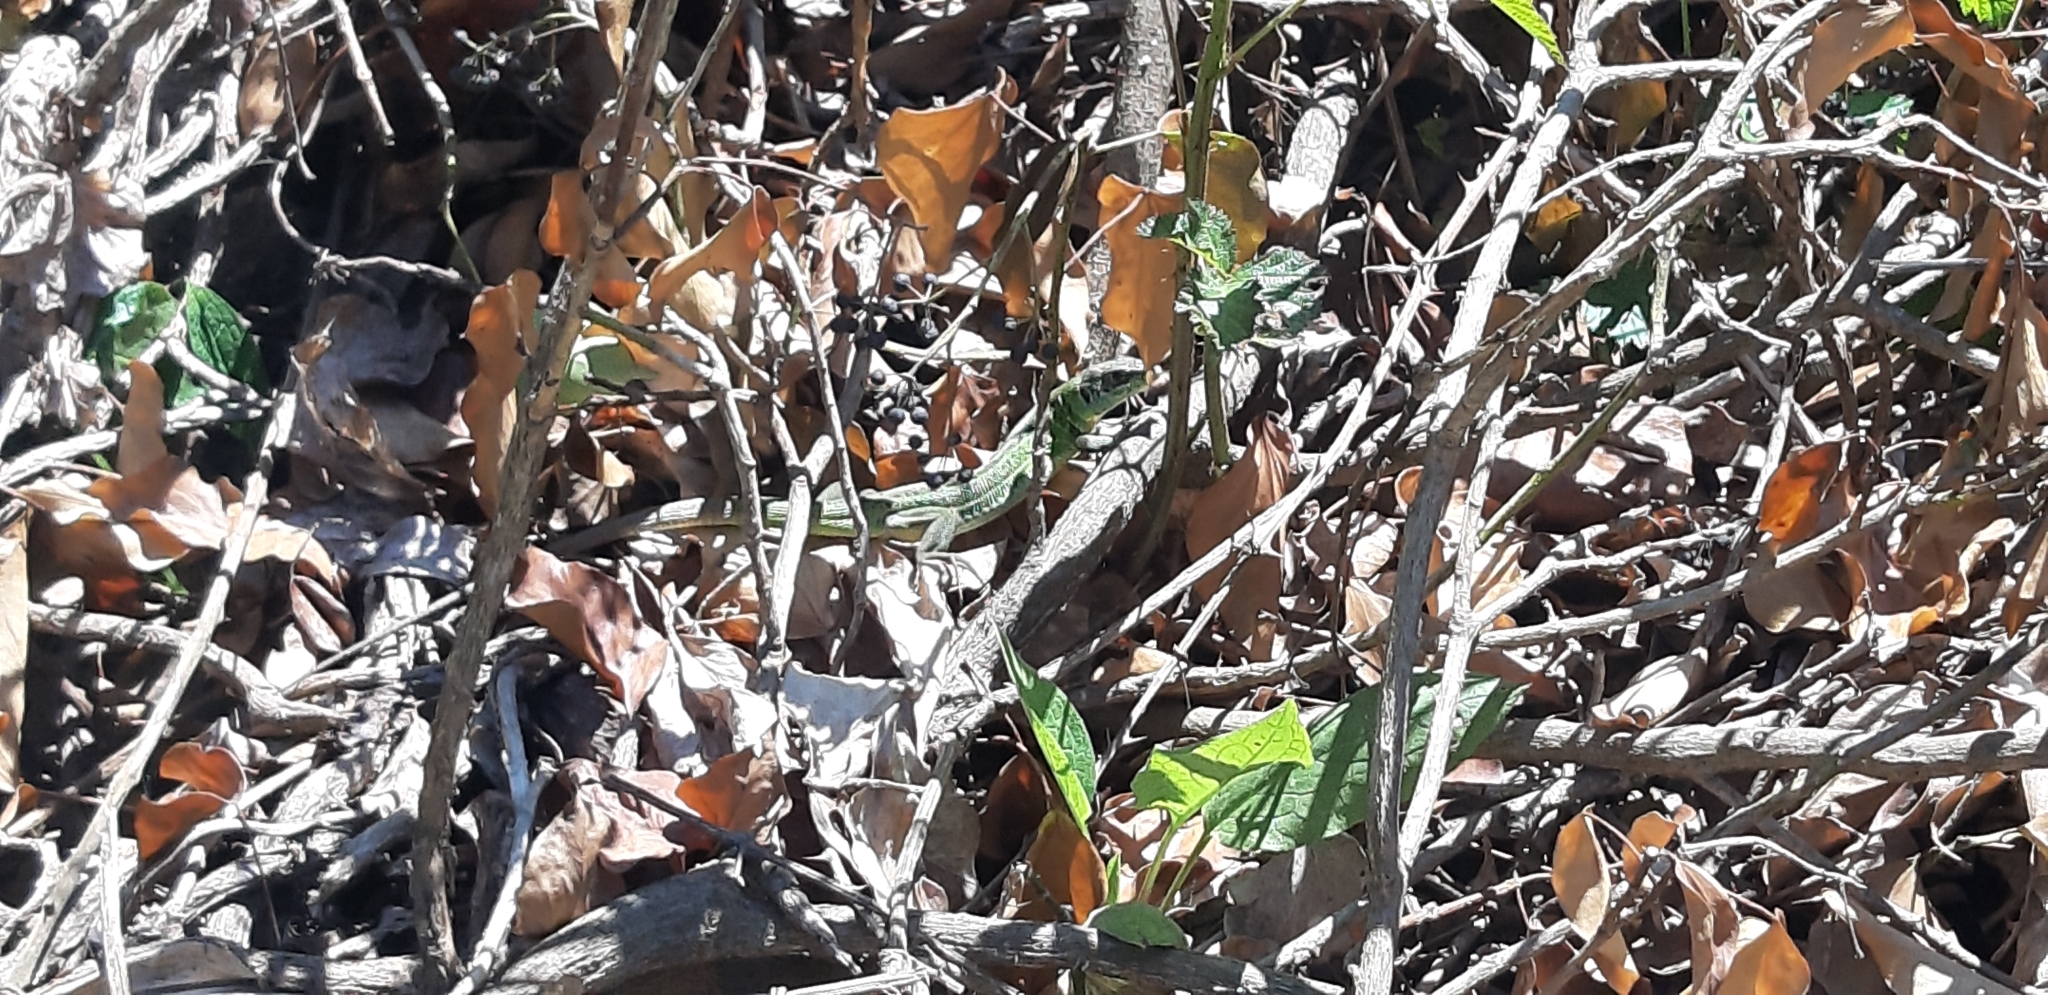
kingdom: Animalia
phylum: Chordata
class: Squamata
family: Lacertidae
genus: Lacerta
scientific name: Lacerta bilineata
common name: Western green lizard
